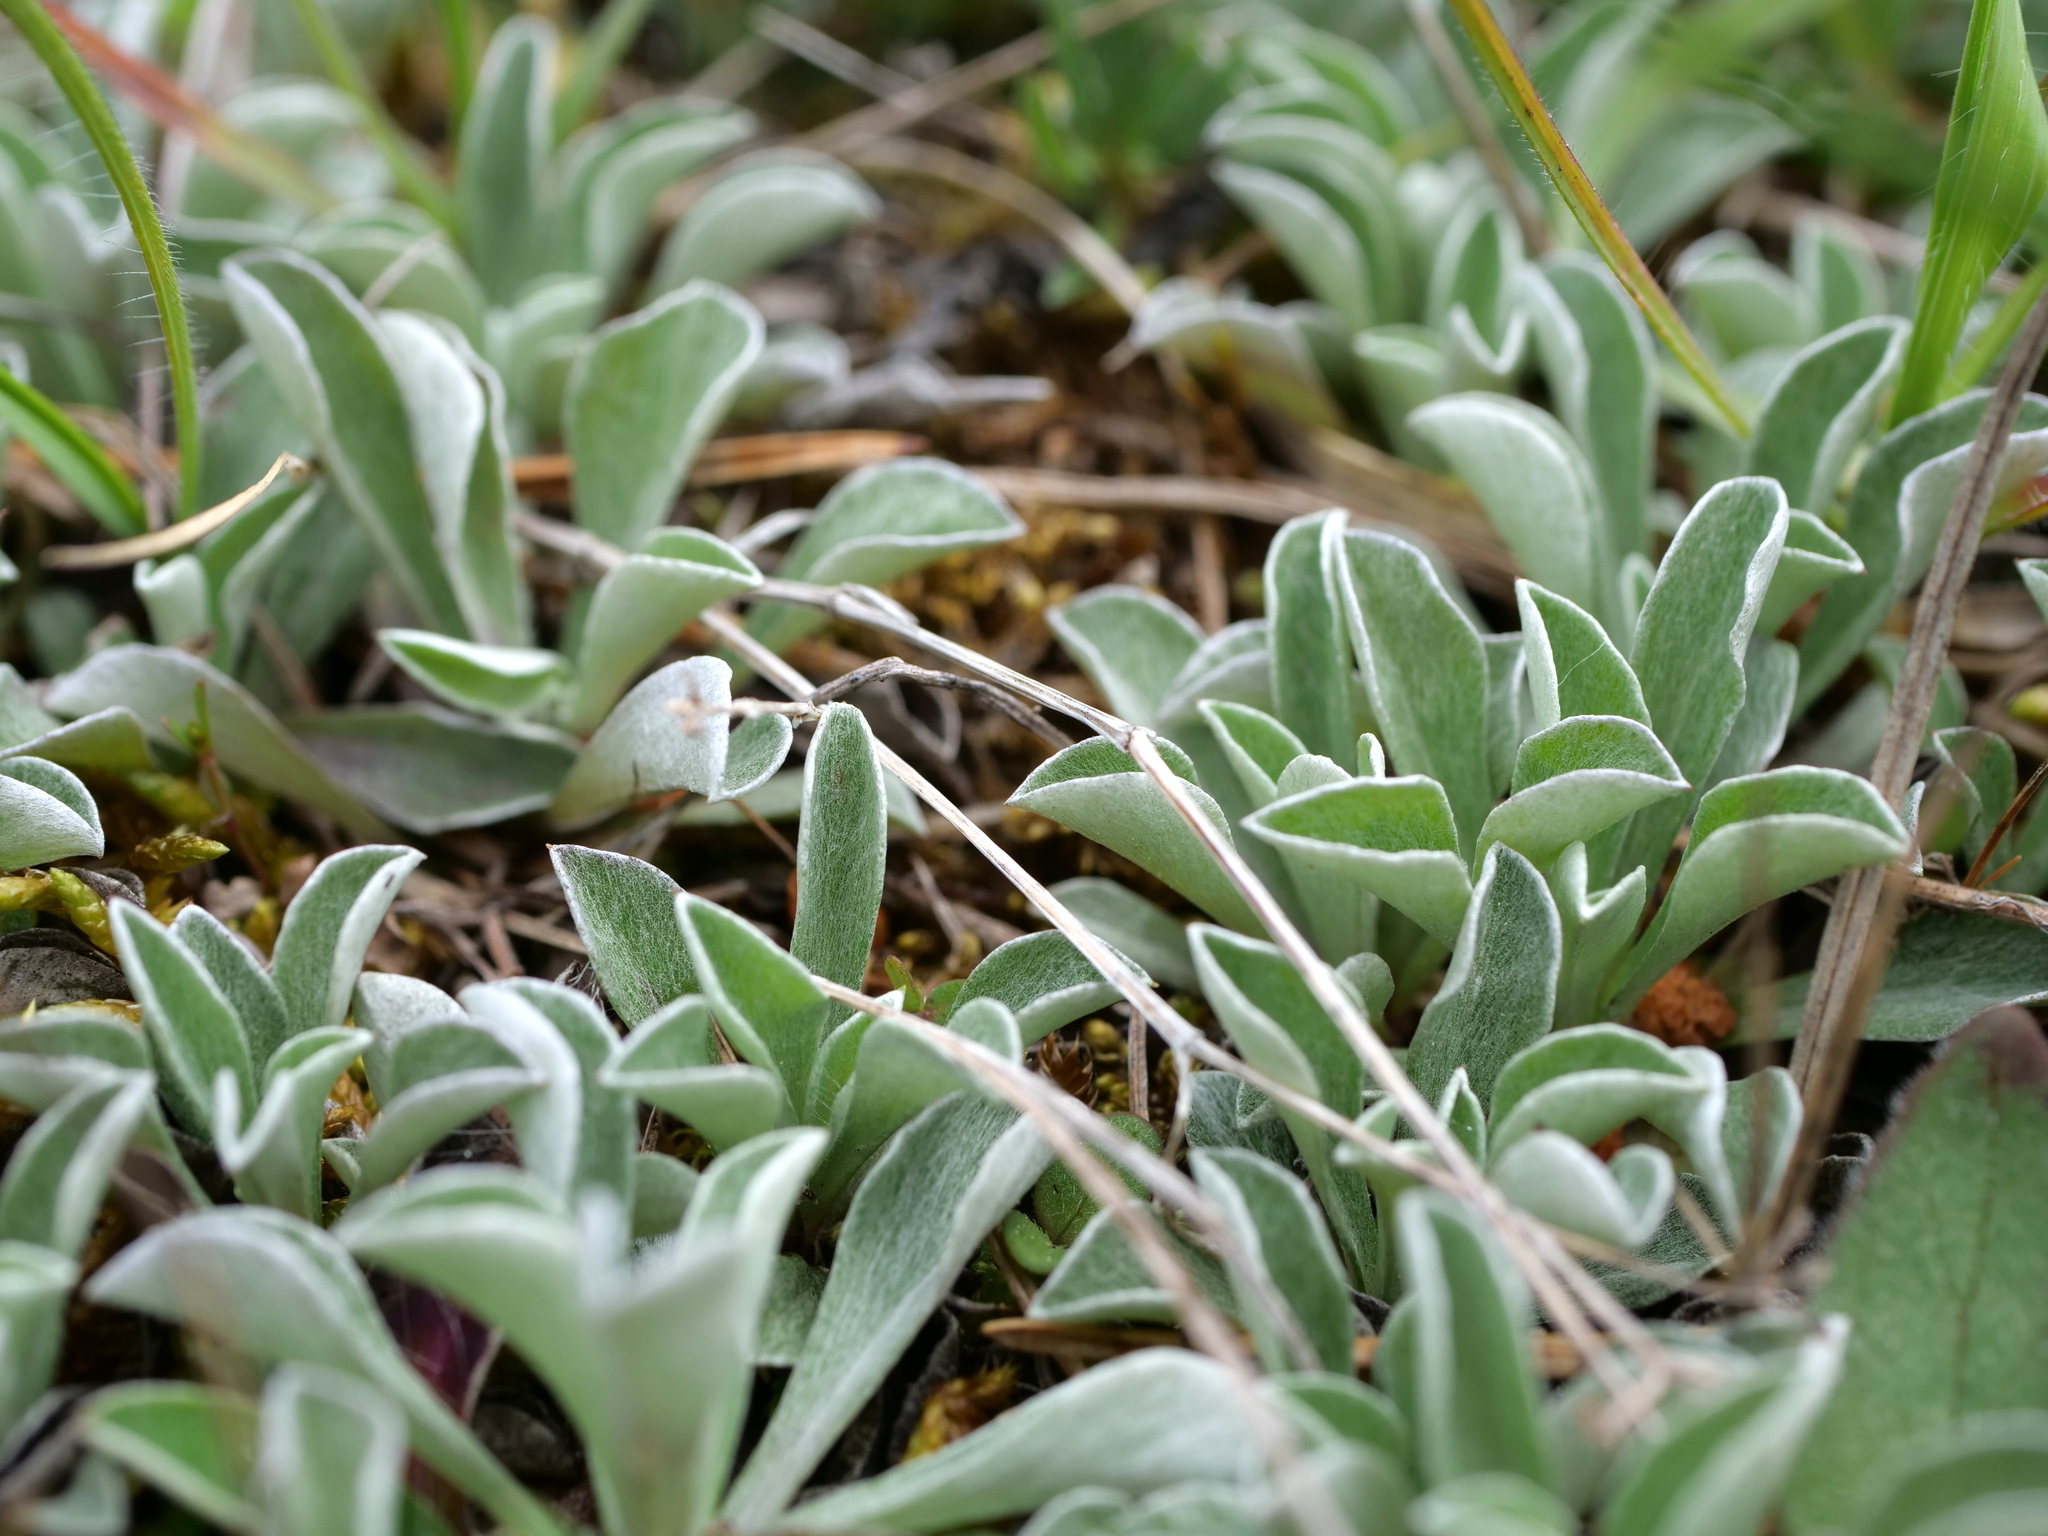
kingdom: Plantae
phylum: Tracheophyta
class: Magnoliopsida
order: Asterales
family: Asteraceae
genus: Antennaria
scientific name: Antennaria dioica
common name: Mountain everlasting
